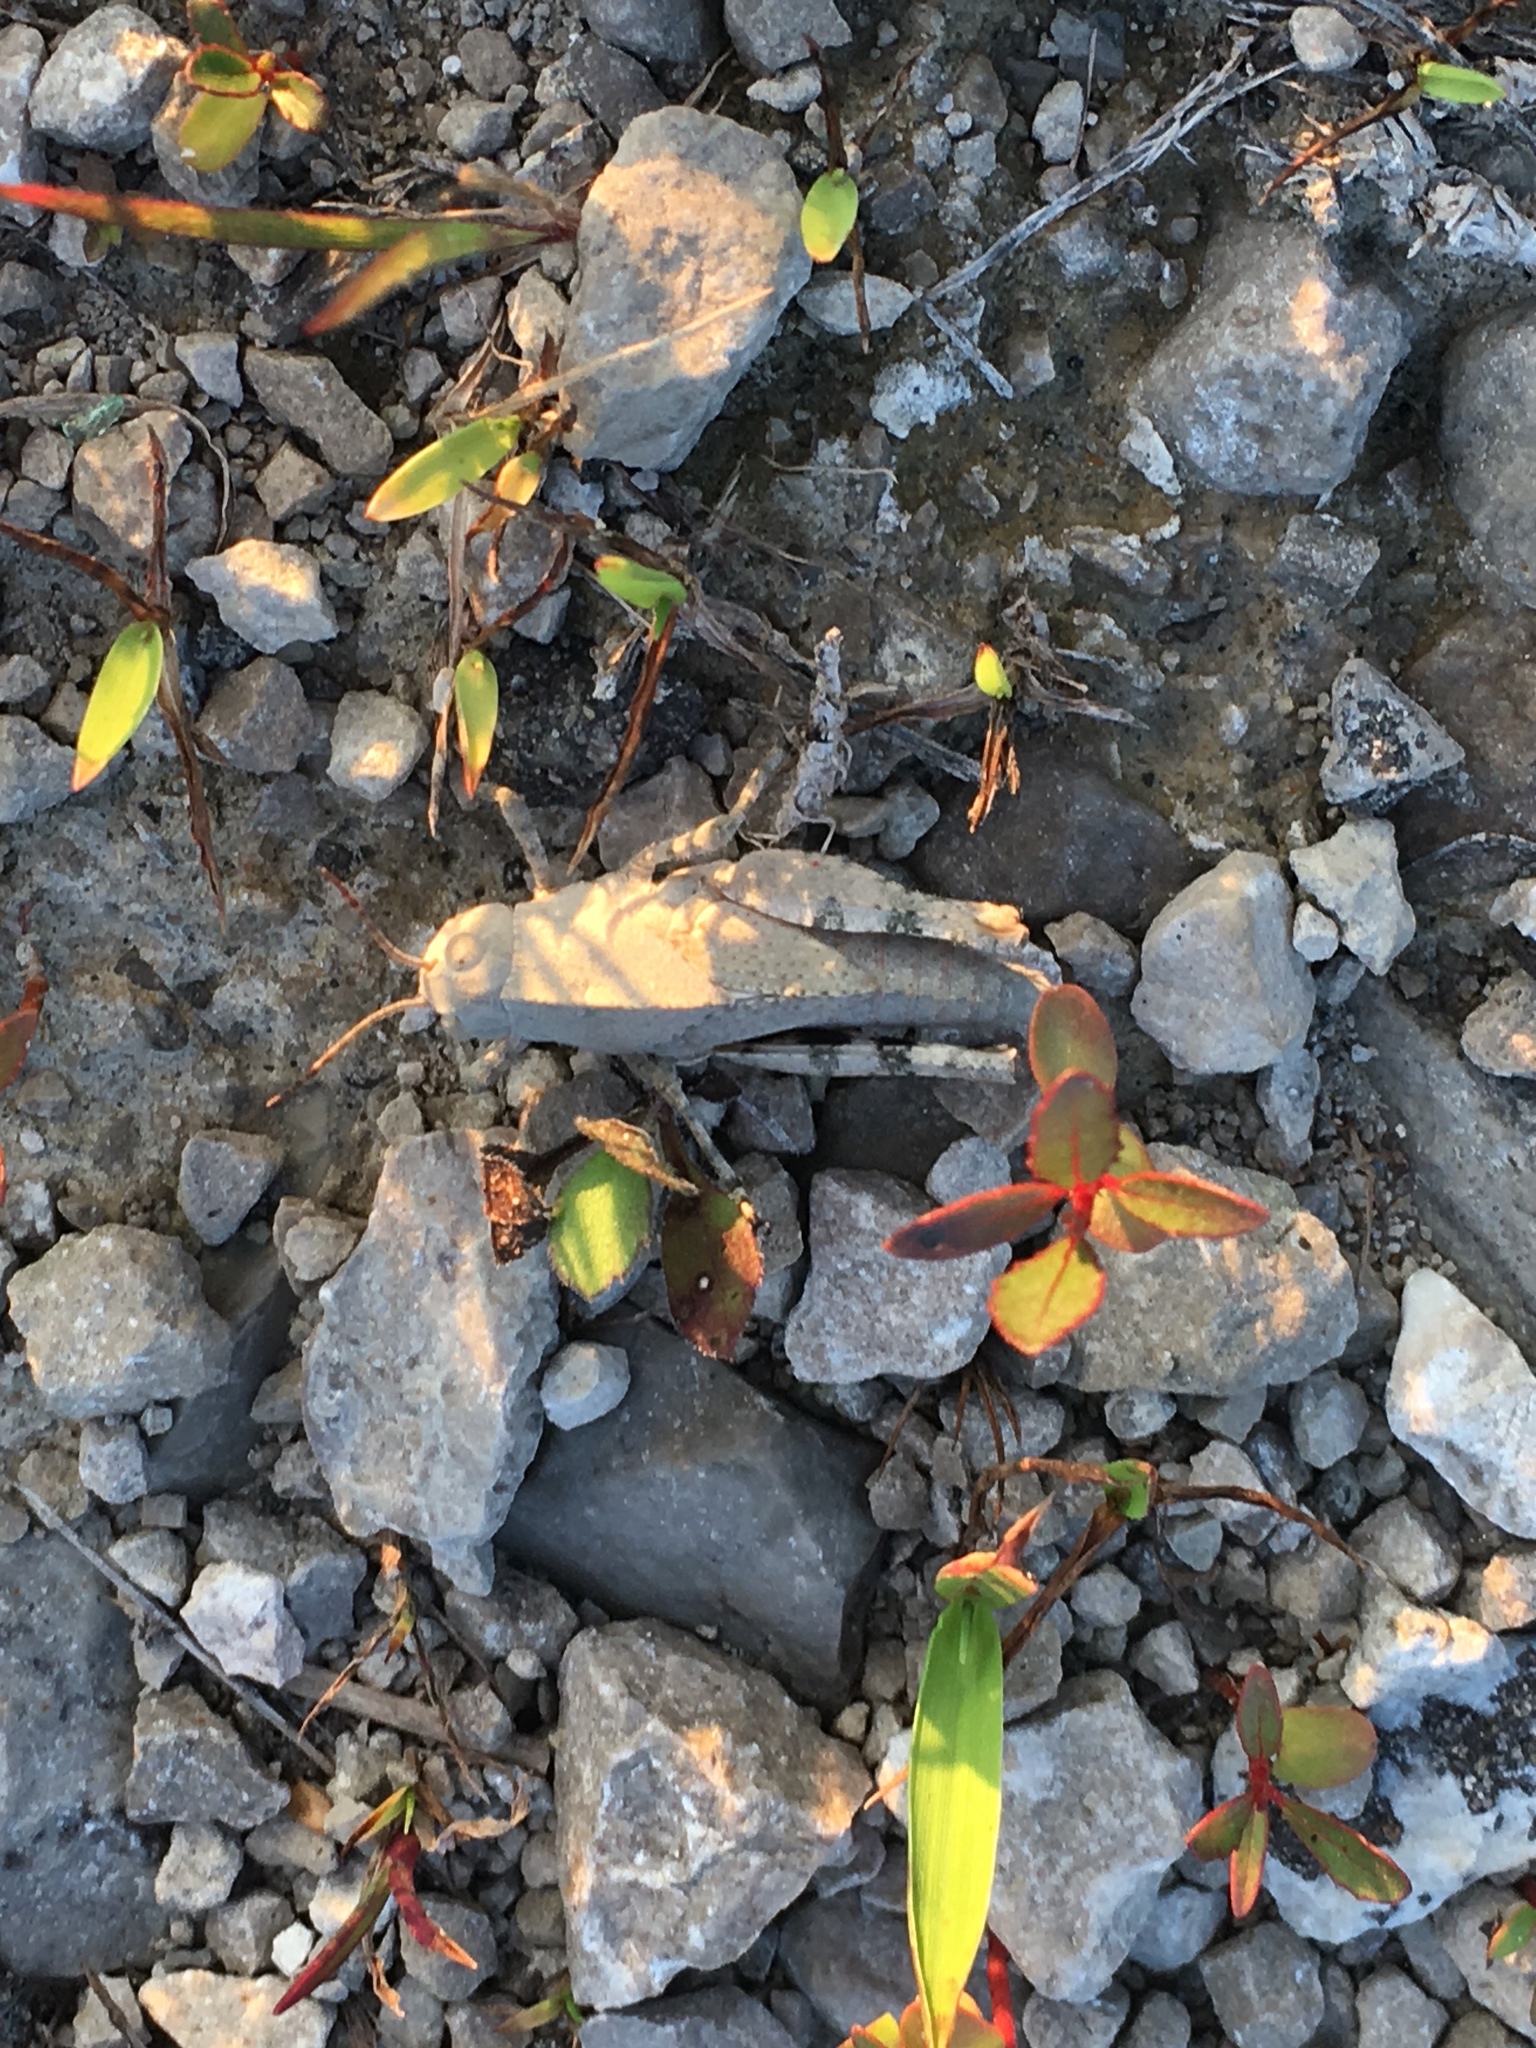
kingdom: Animalia
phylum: Arthropoda
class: Insecta
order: Orthoptera
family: Acrididae
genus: Dissosteira
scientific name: Dissosteira carolina
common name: Carolina grasshopper
